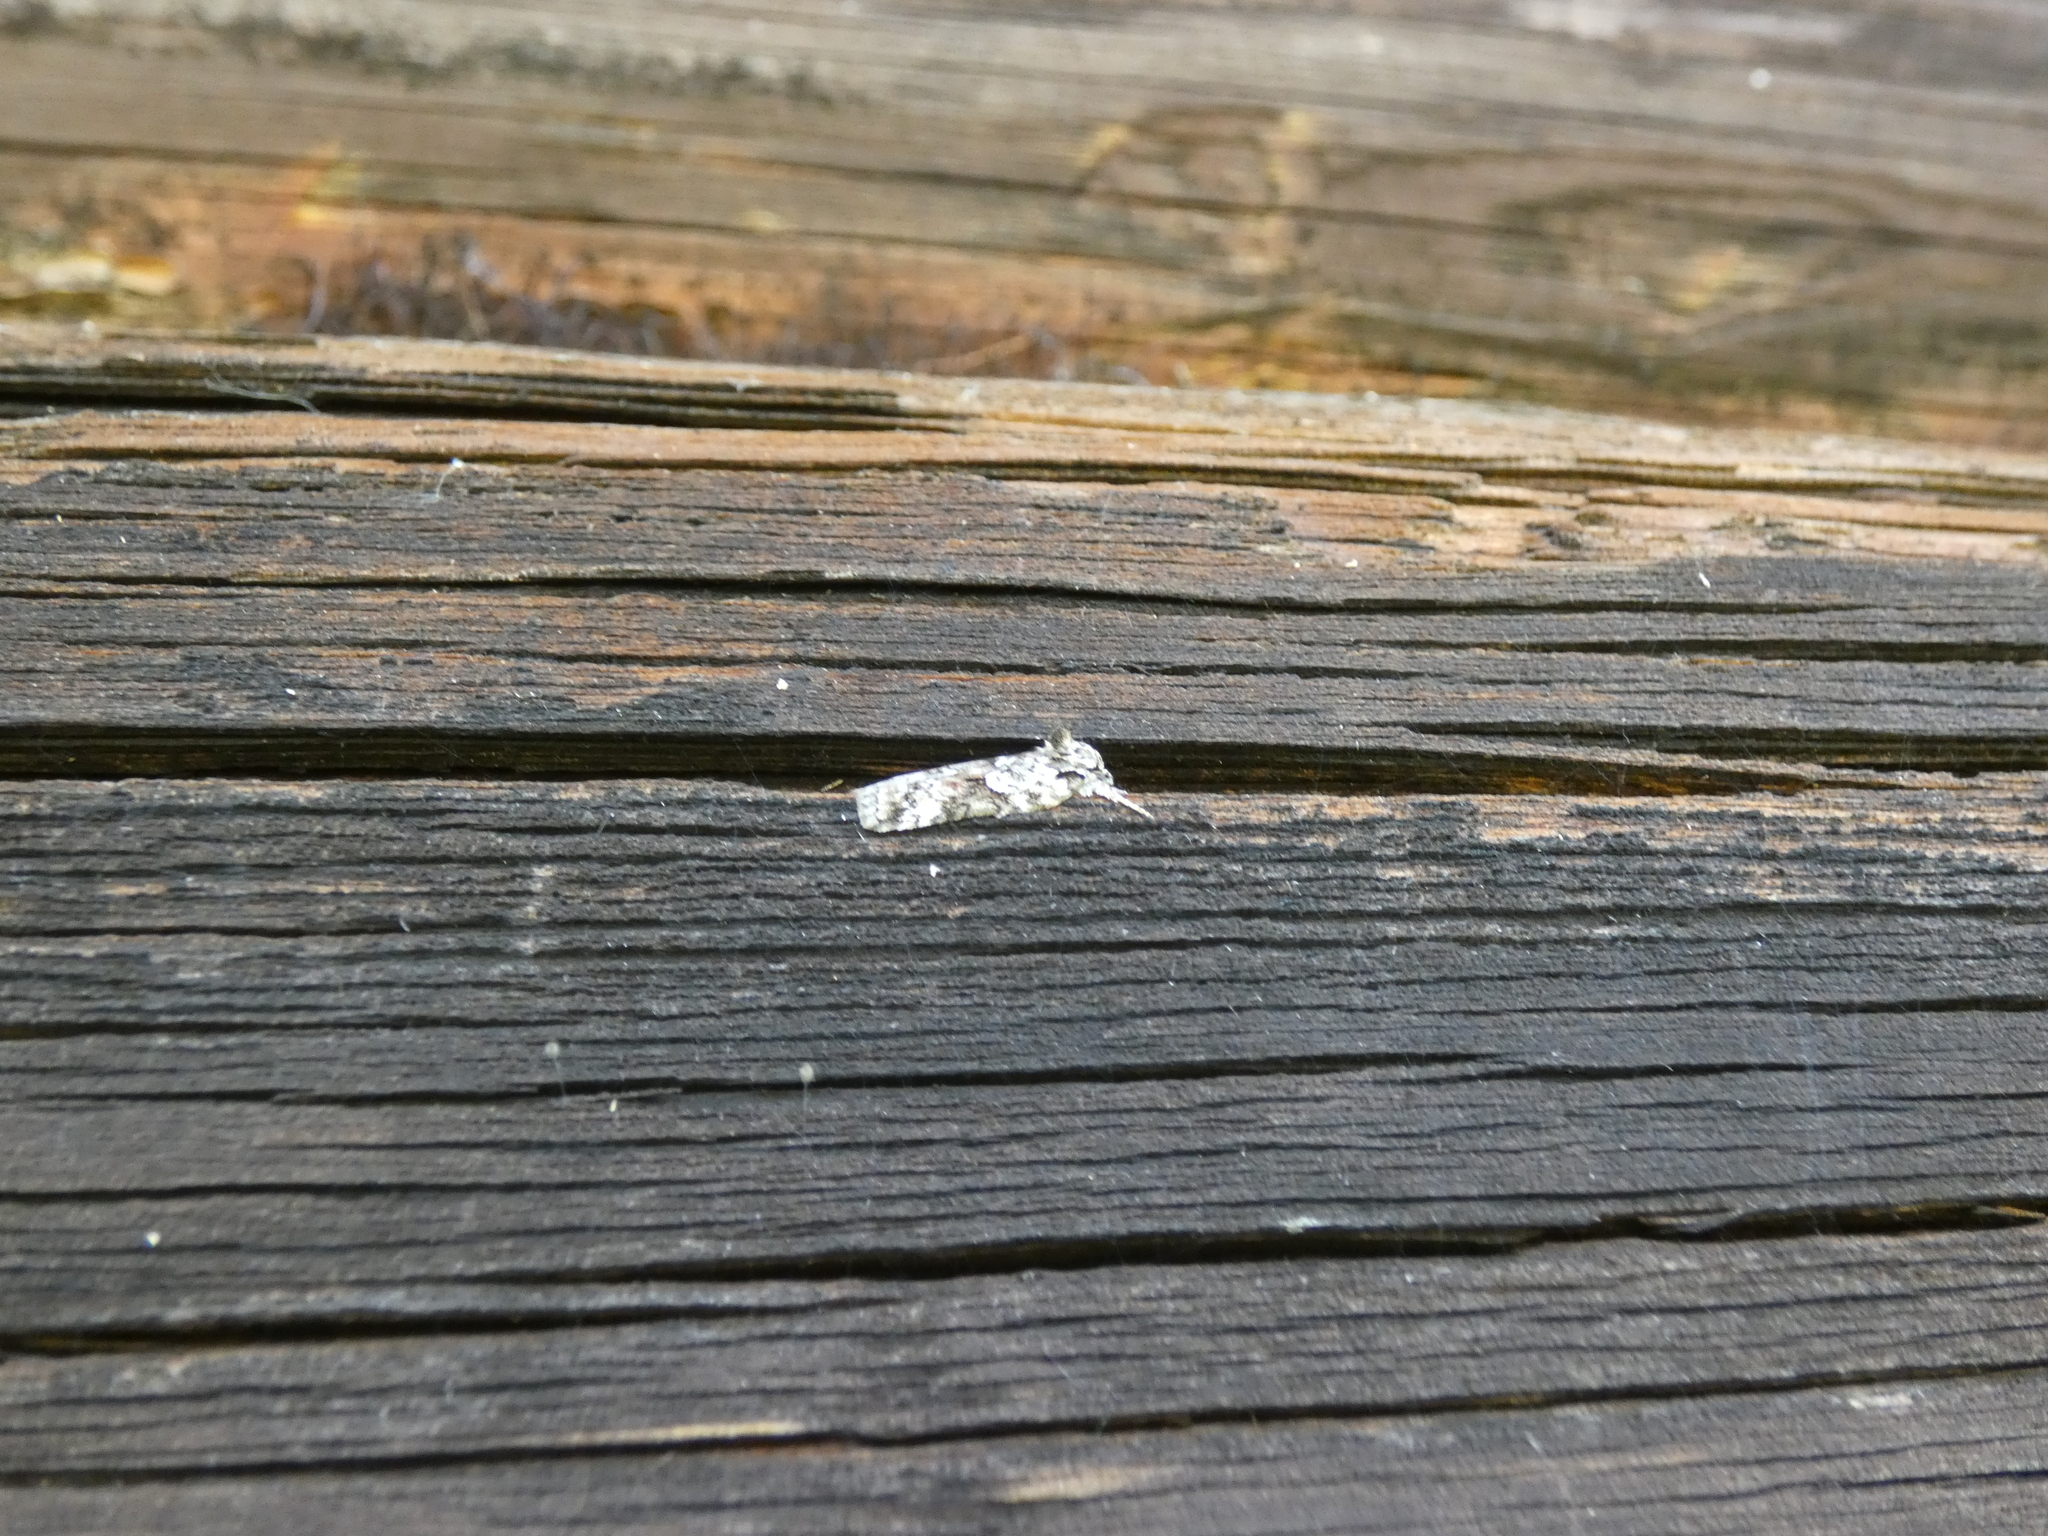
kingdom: Animalia
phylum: Arthropoda
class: Insecta
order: Lepidoptera
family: Nolidae
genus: Nycteola
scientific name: Nycteola degenerana
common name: Swallow nycteoline
